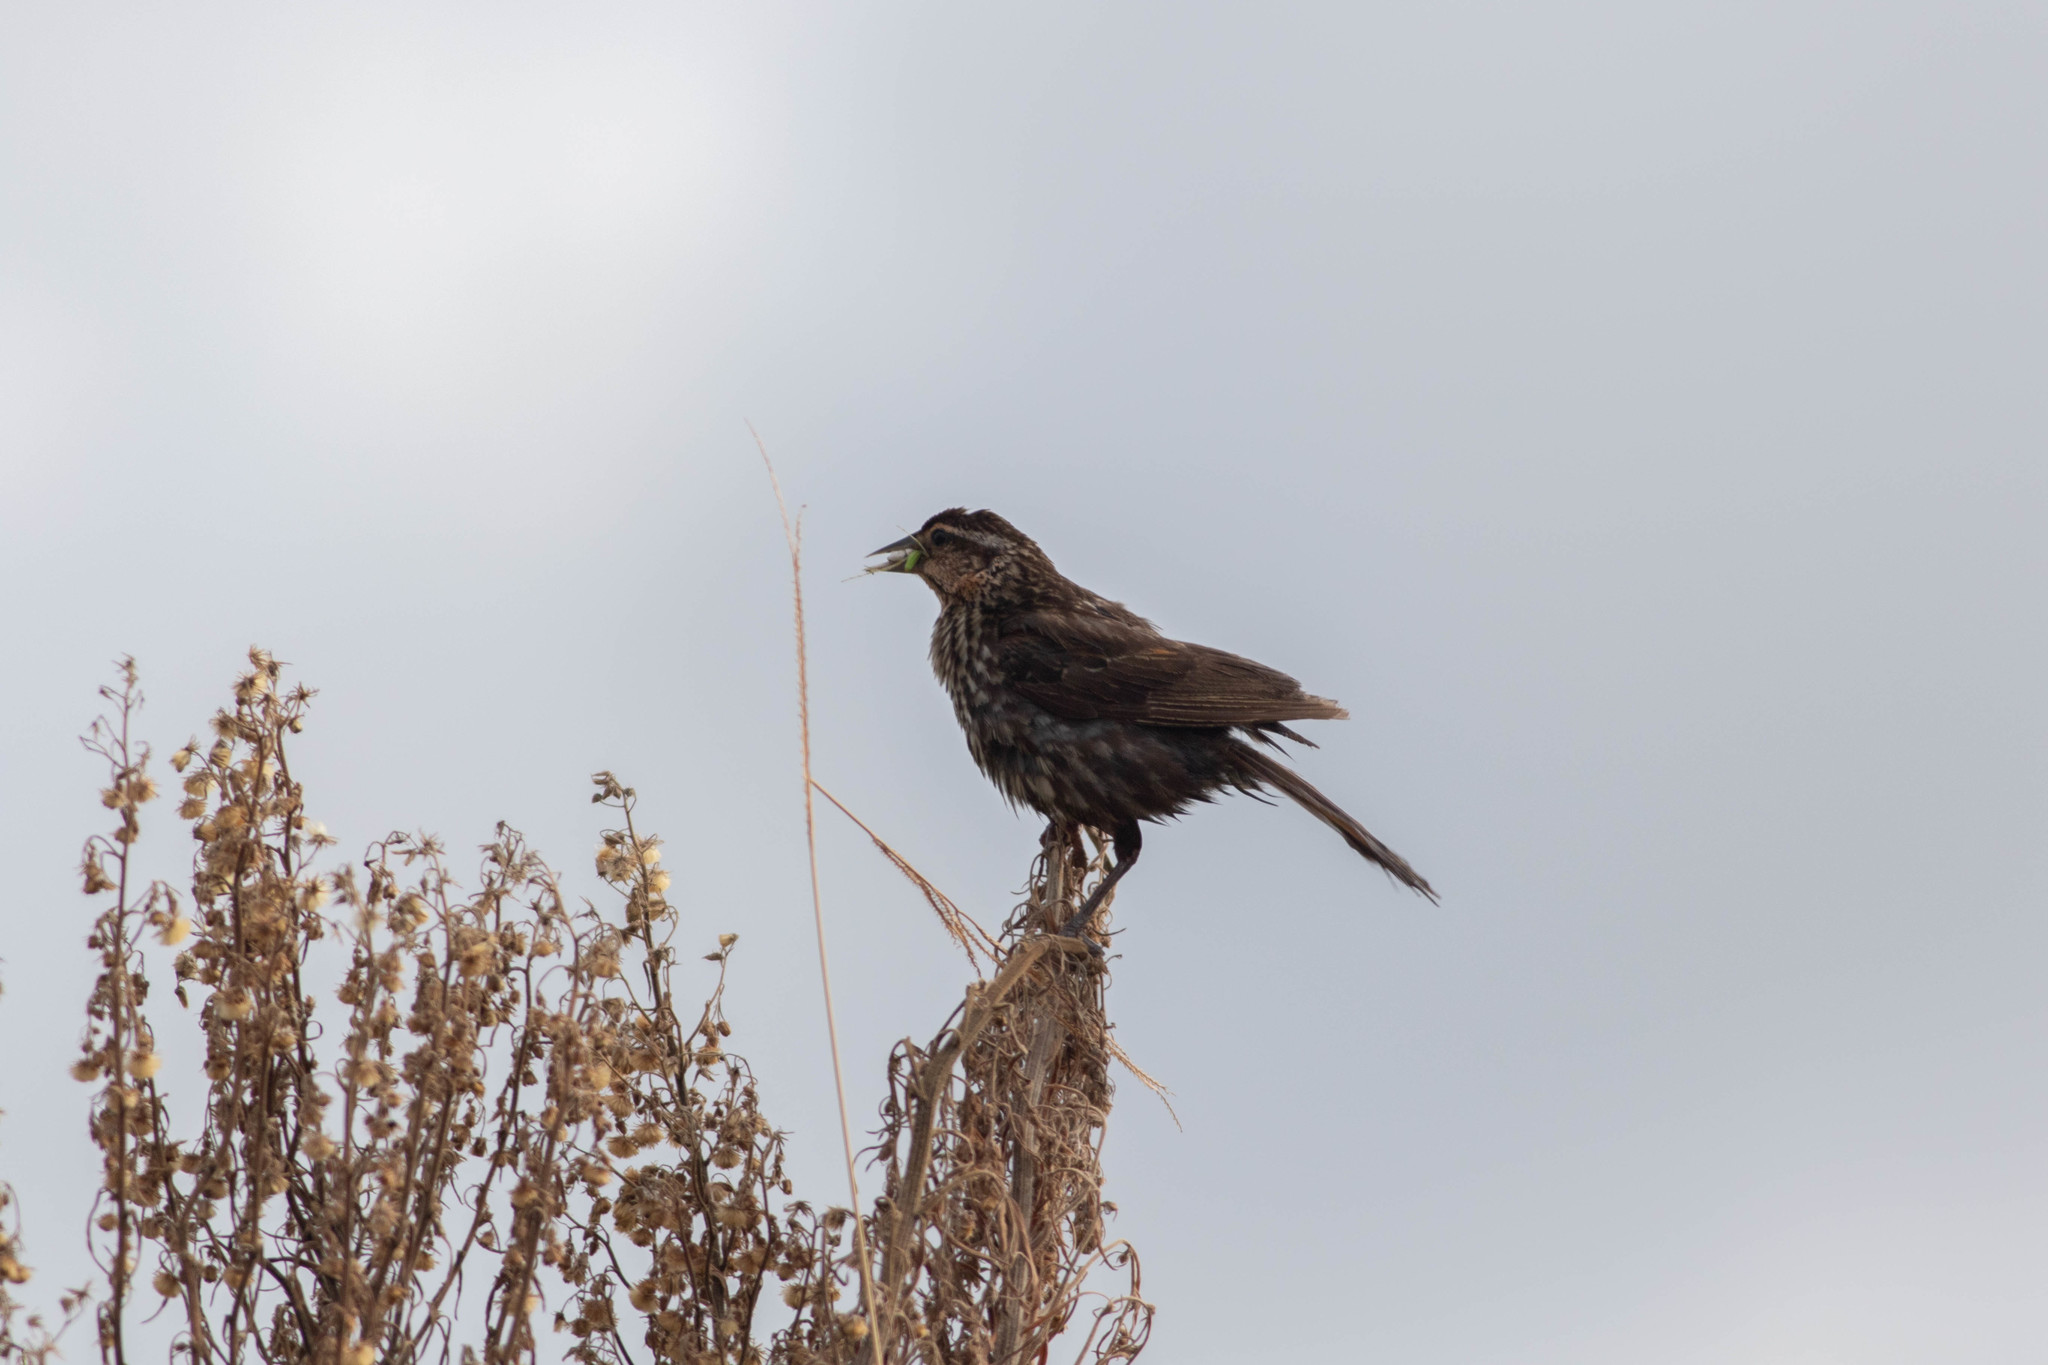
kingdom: Animalia
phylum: Chordata
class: Aves
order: Passeriformes
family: Icteridae
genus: Agelaius
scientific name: Agelaius phoeniceus
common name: Red-winged blackbird
